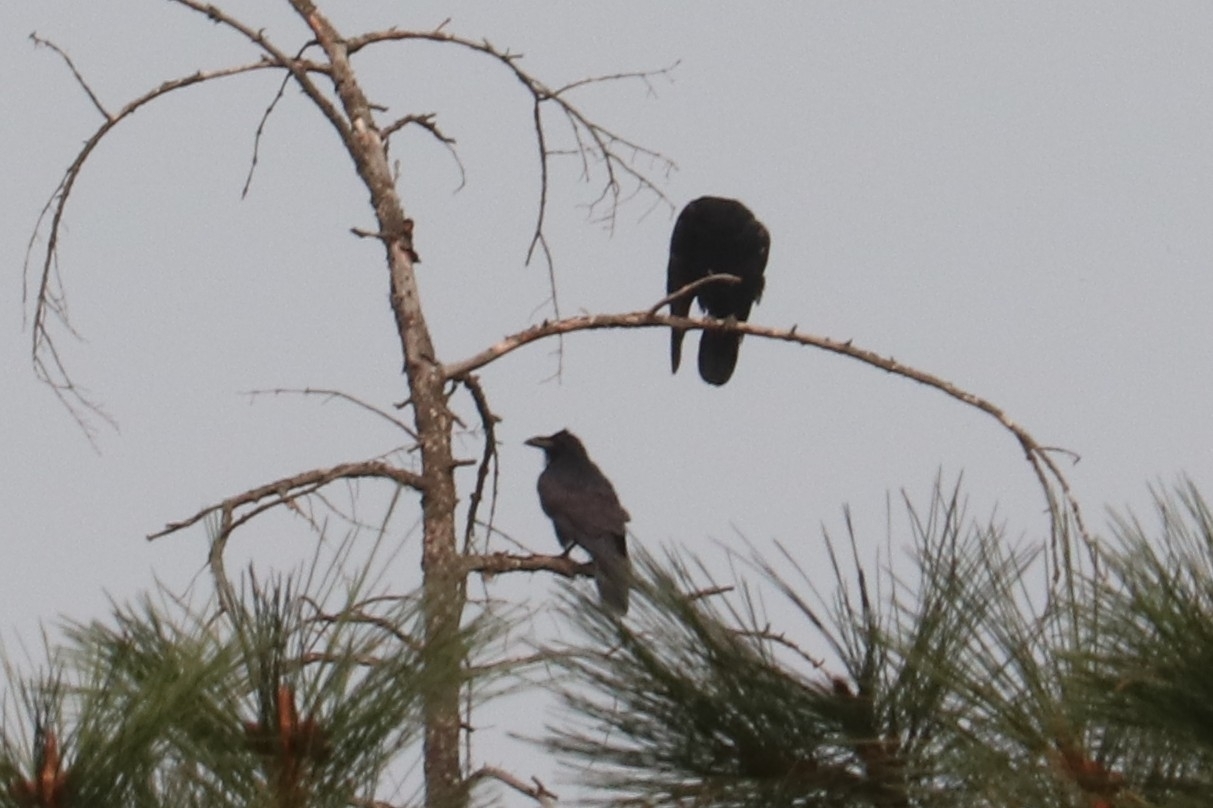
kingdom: Animalia
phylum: Chordata
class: Aves
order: Passeriformes
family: Corvidae
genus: Corvus
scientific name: Corvus corax
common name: Common raven
